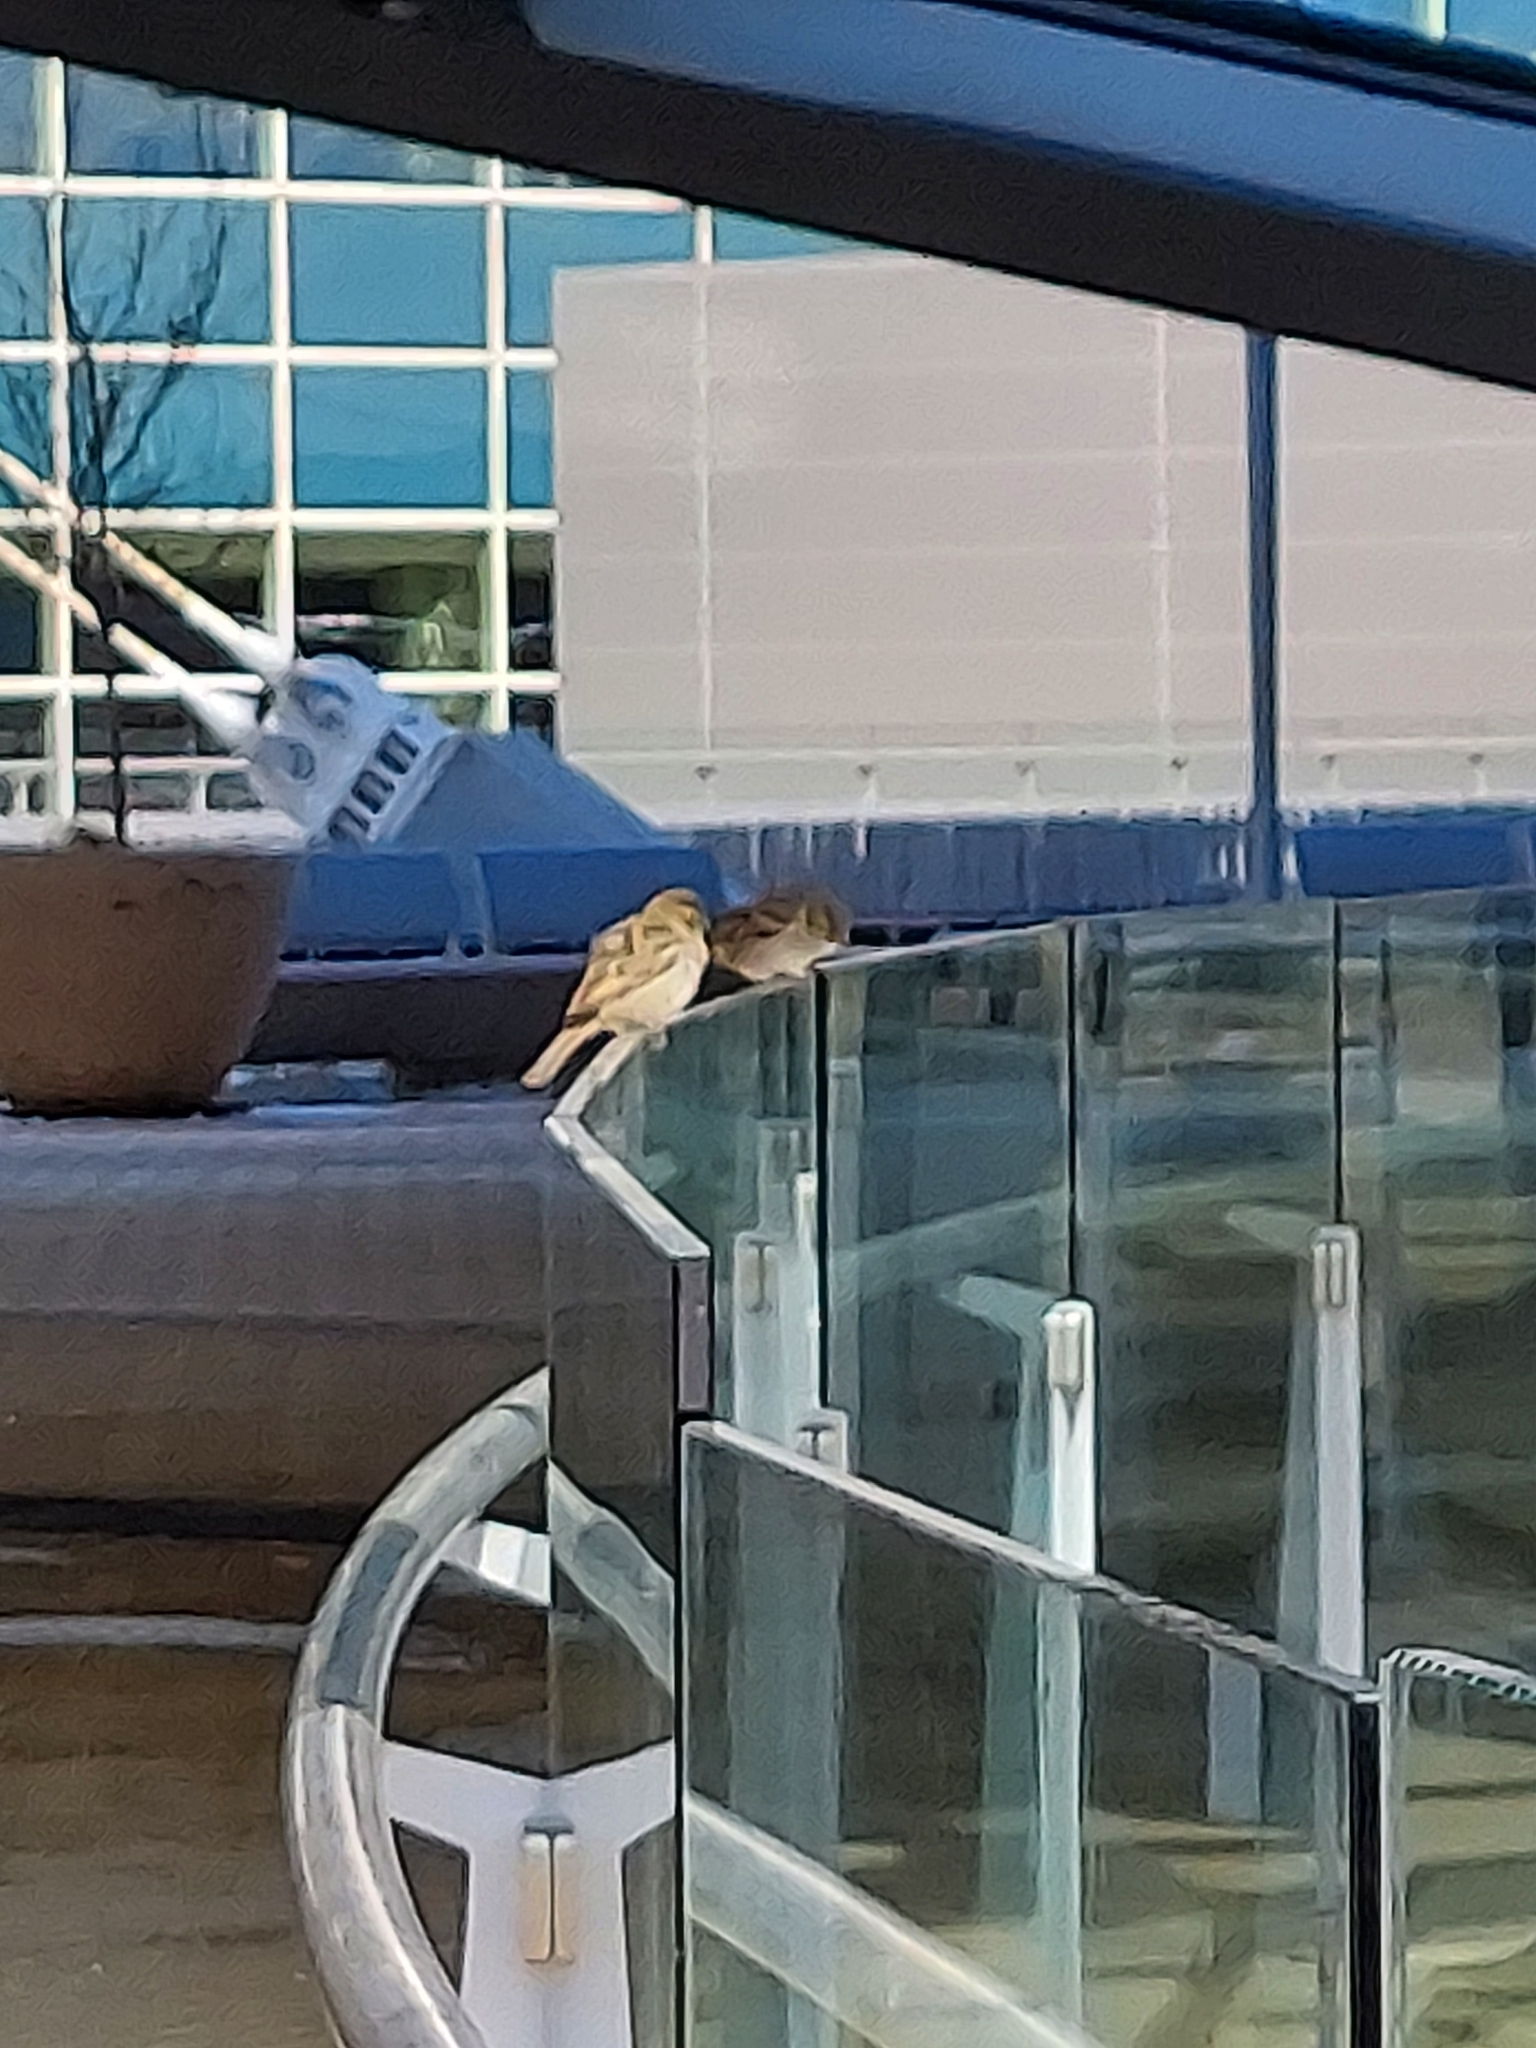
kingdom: Animalia
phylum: Chordata
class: Aves
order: Passeriformes
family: Passeridae
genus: Passer
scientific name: Passer domesticus
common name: House sparrow
